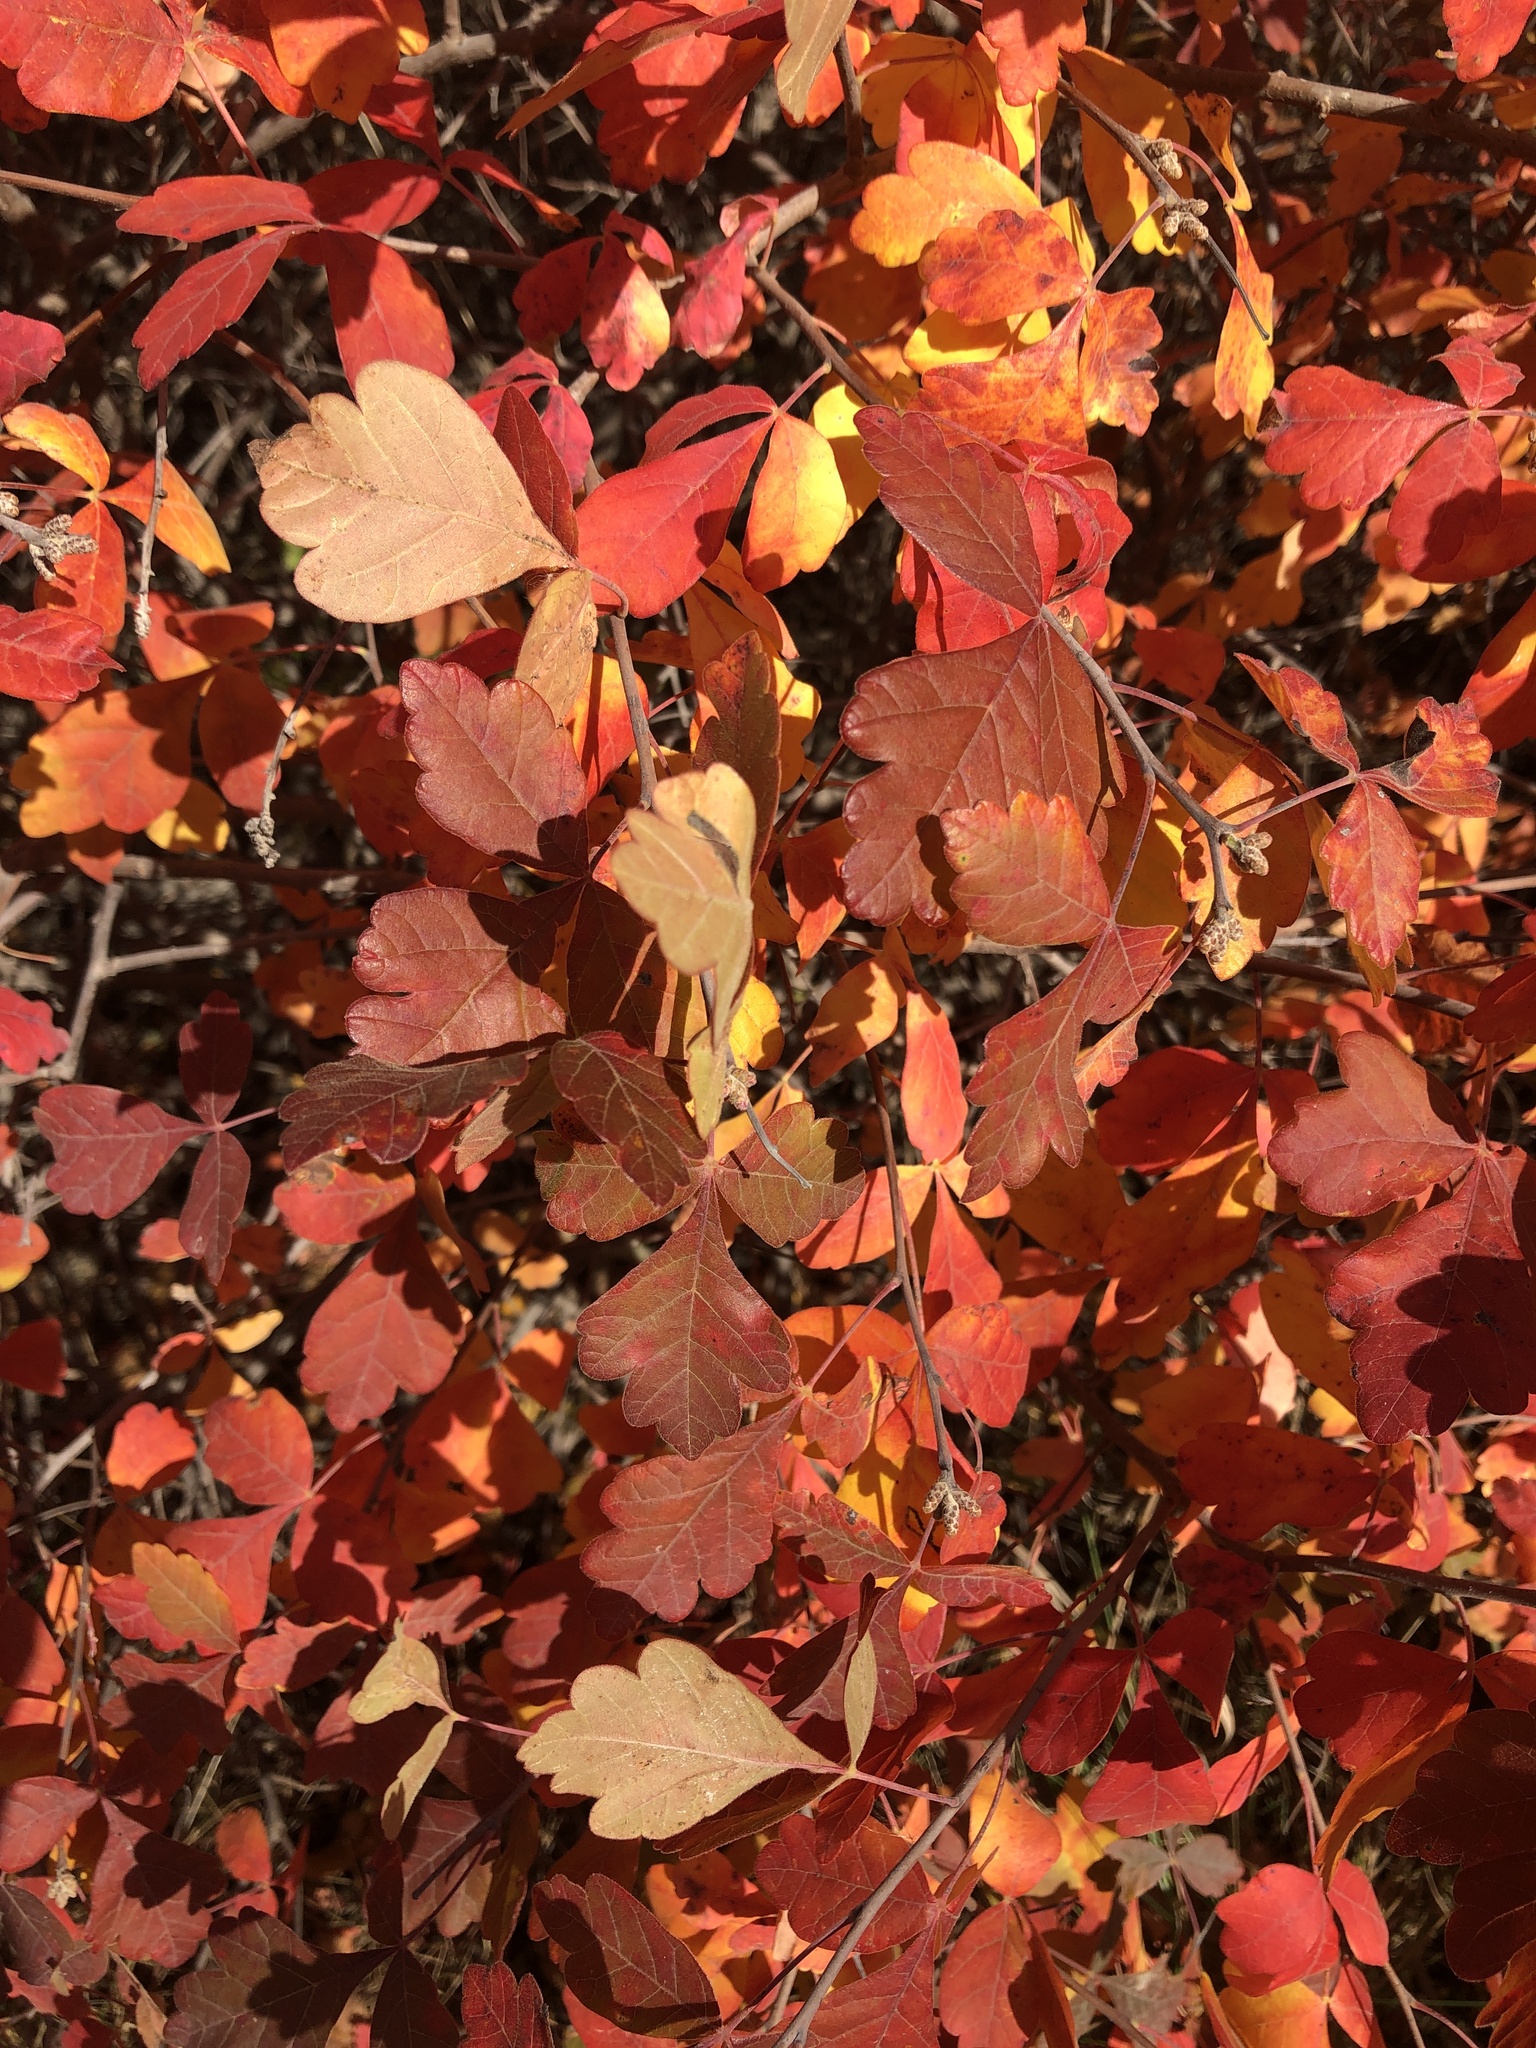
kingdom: Plantae
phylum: Tracheophyta
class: Magnoliopsida
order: Sapindales
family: Anacardiaceae
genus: Rhus
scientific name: Rhus aromatica
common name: Aromatic sumac
